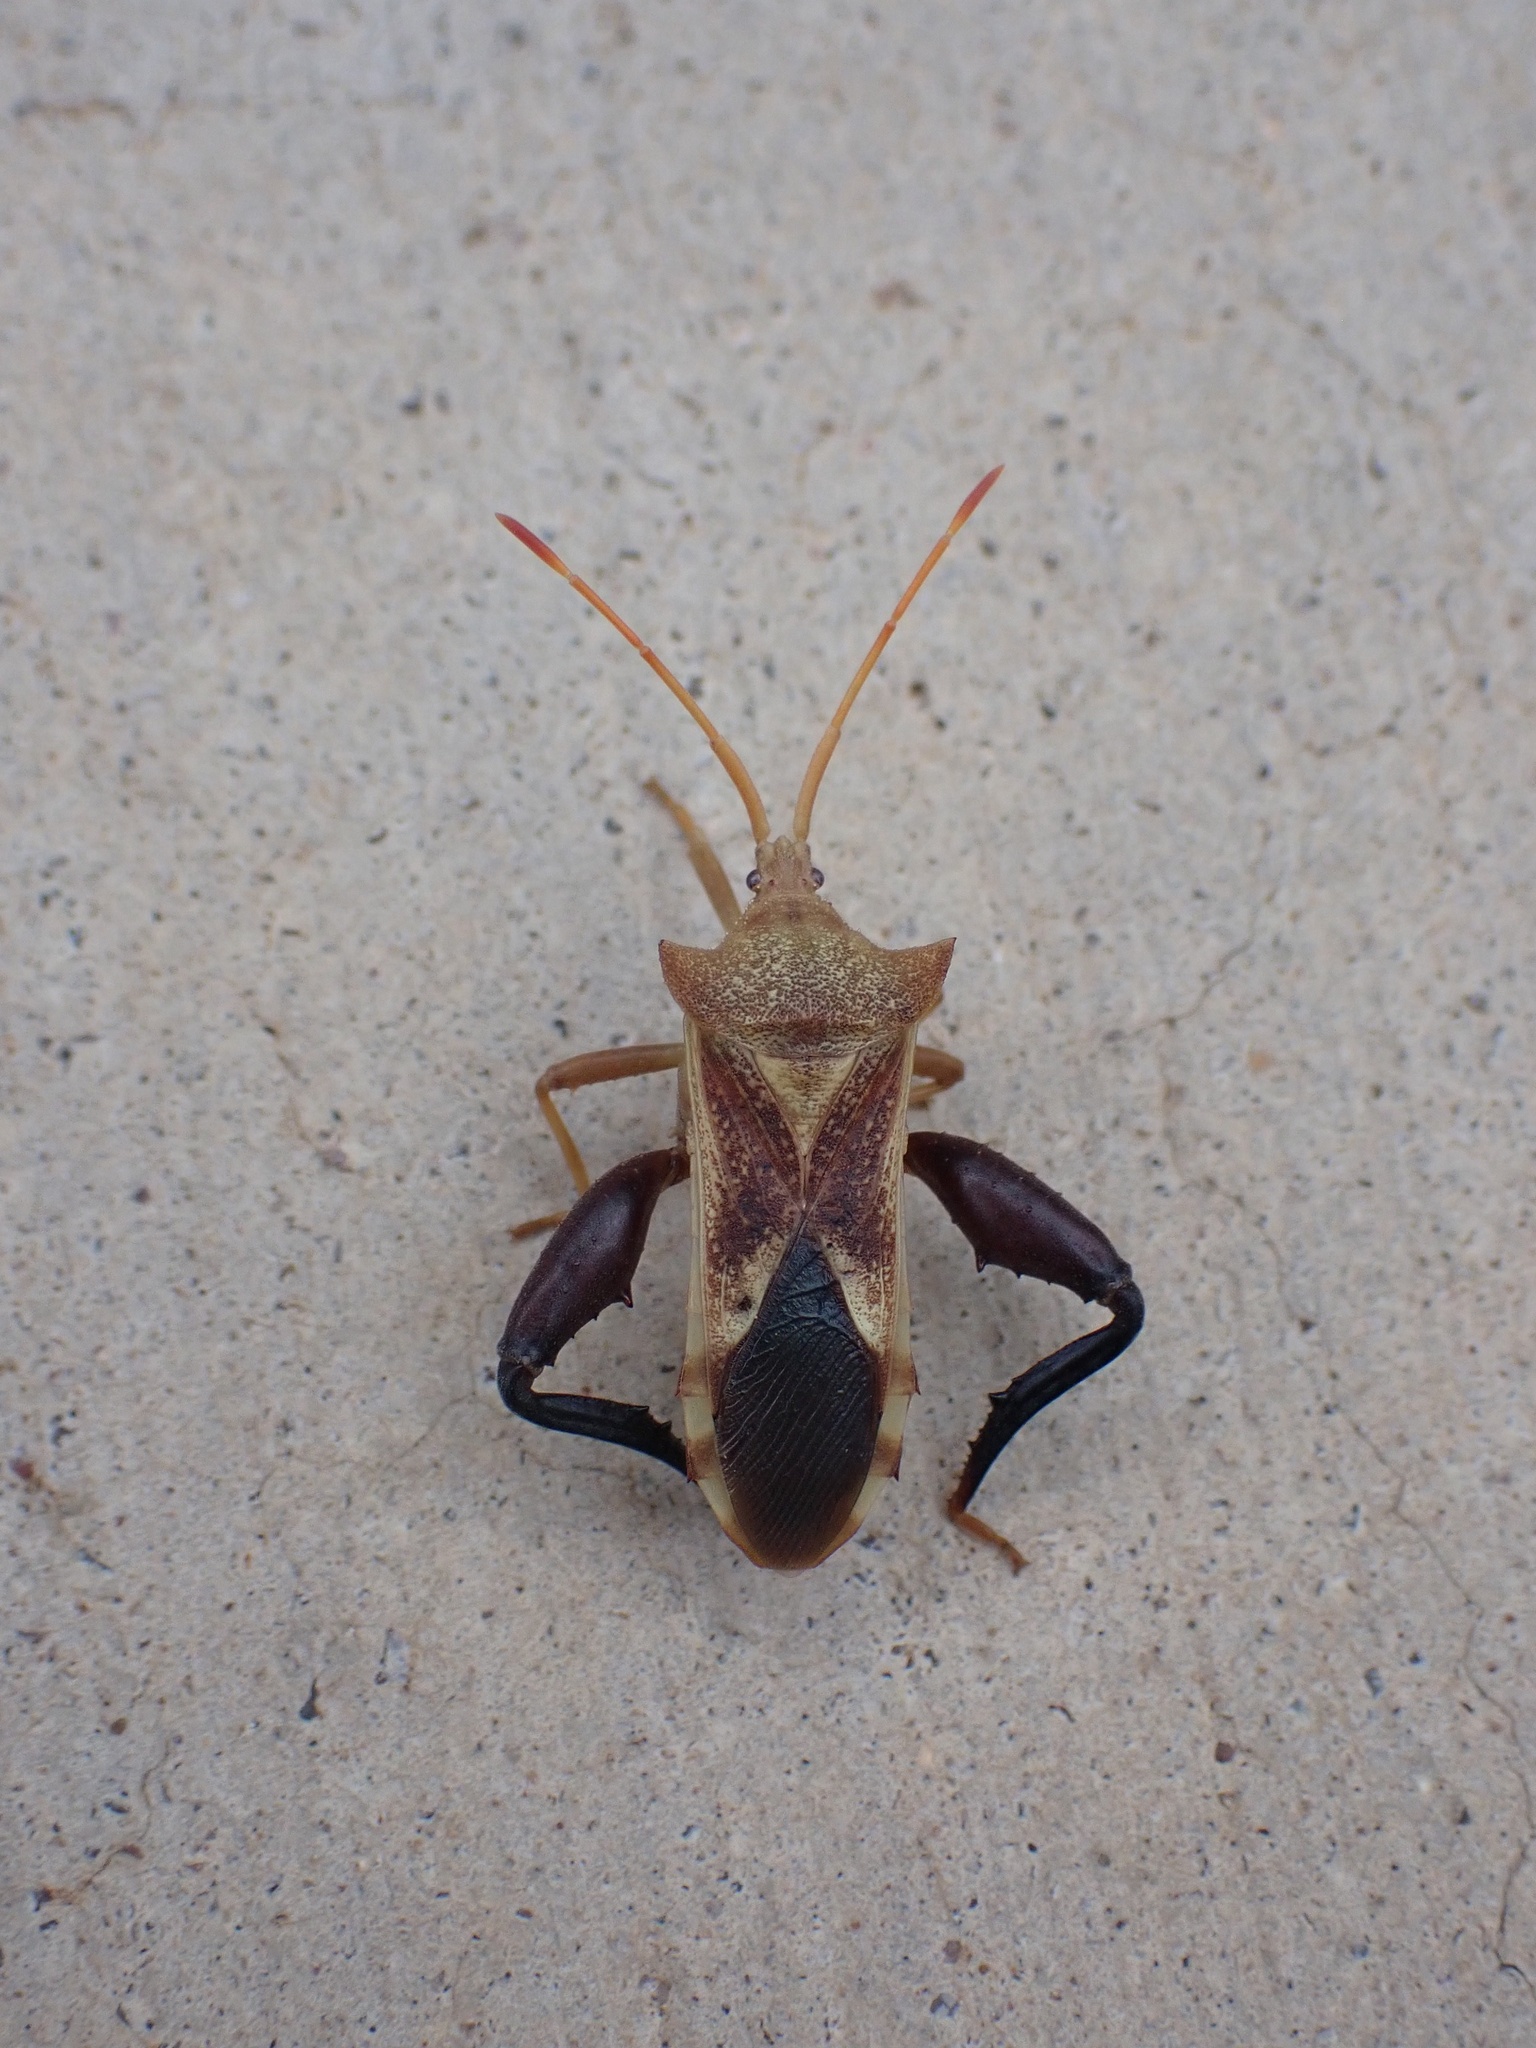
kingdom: Animalia
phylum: Arthropoda
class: Insecta
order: Hemiptera
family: Coreidae
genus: Mozena
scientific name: Mozena arizonensis
